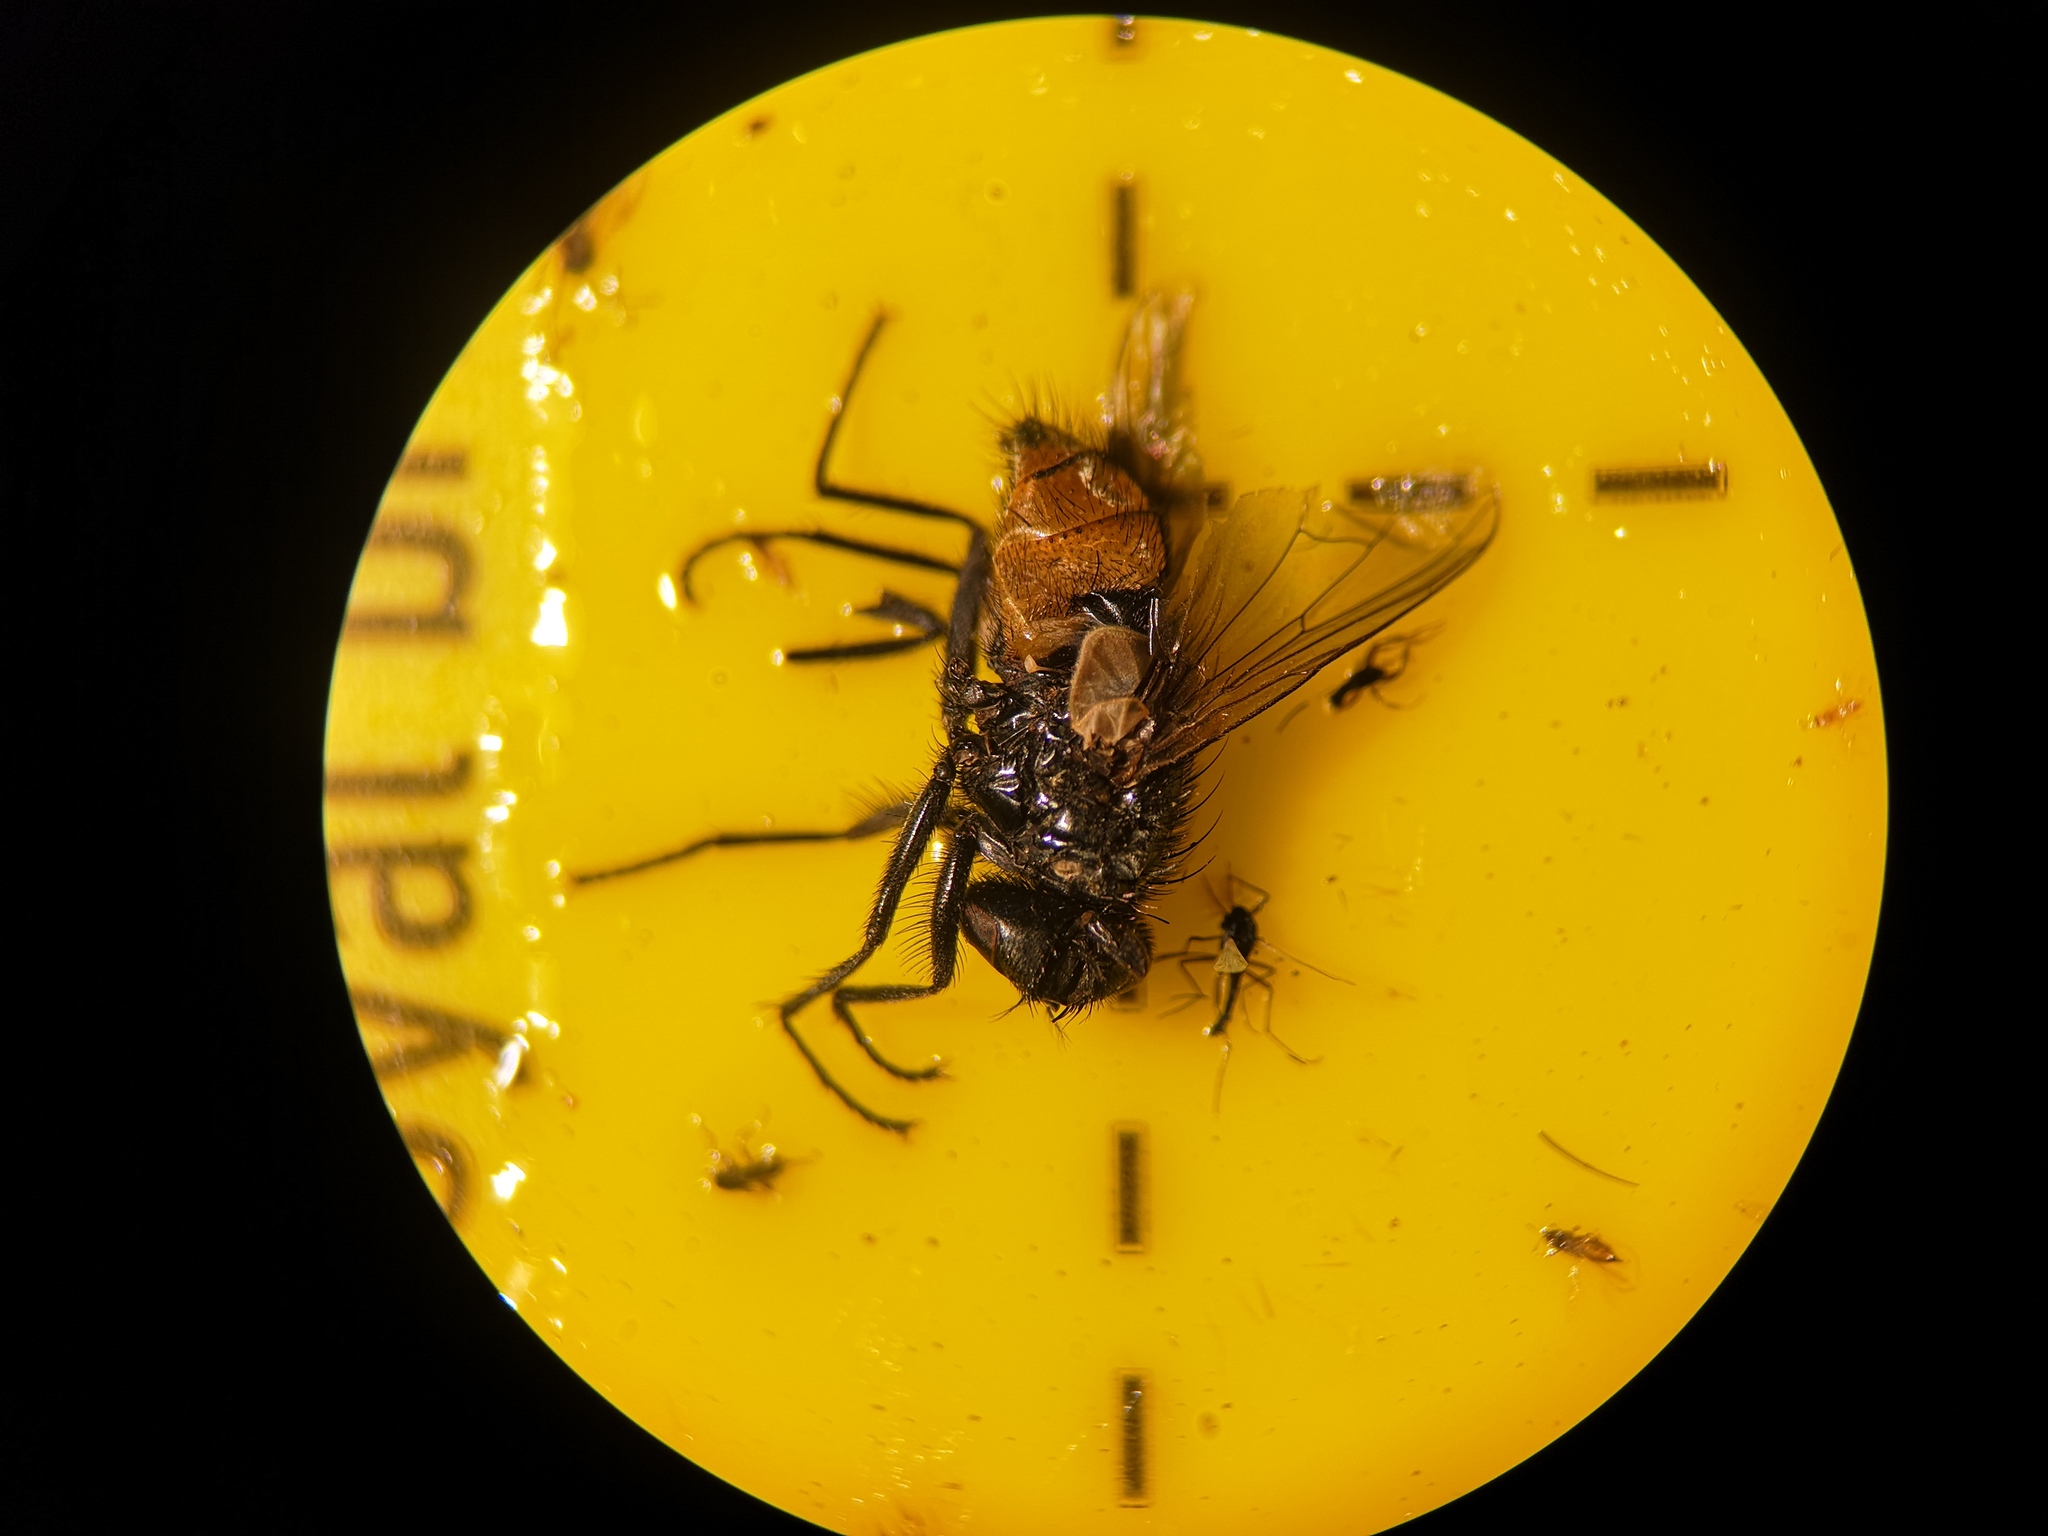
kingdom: Animalia
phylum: Arthropoda
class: Insecta
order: Diptera
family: Muscidae
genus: Musca
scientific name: Musca autumnalis
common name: Face fly
